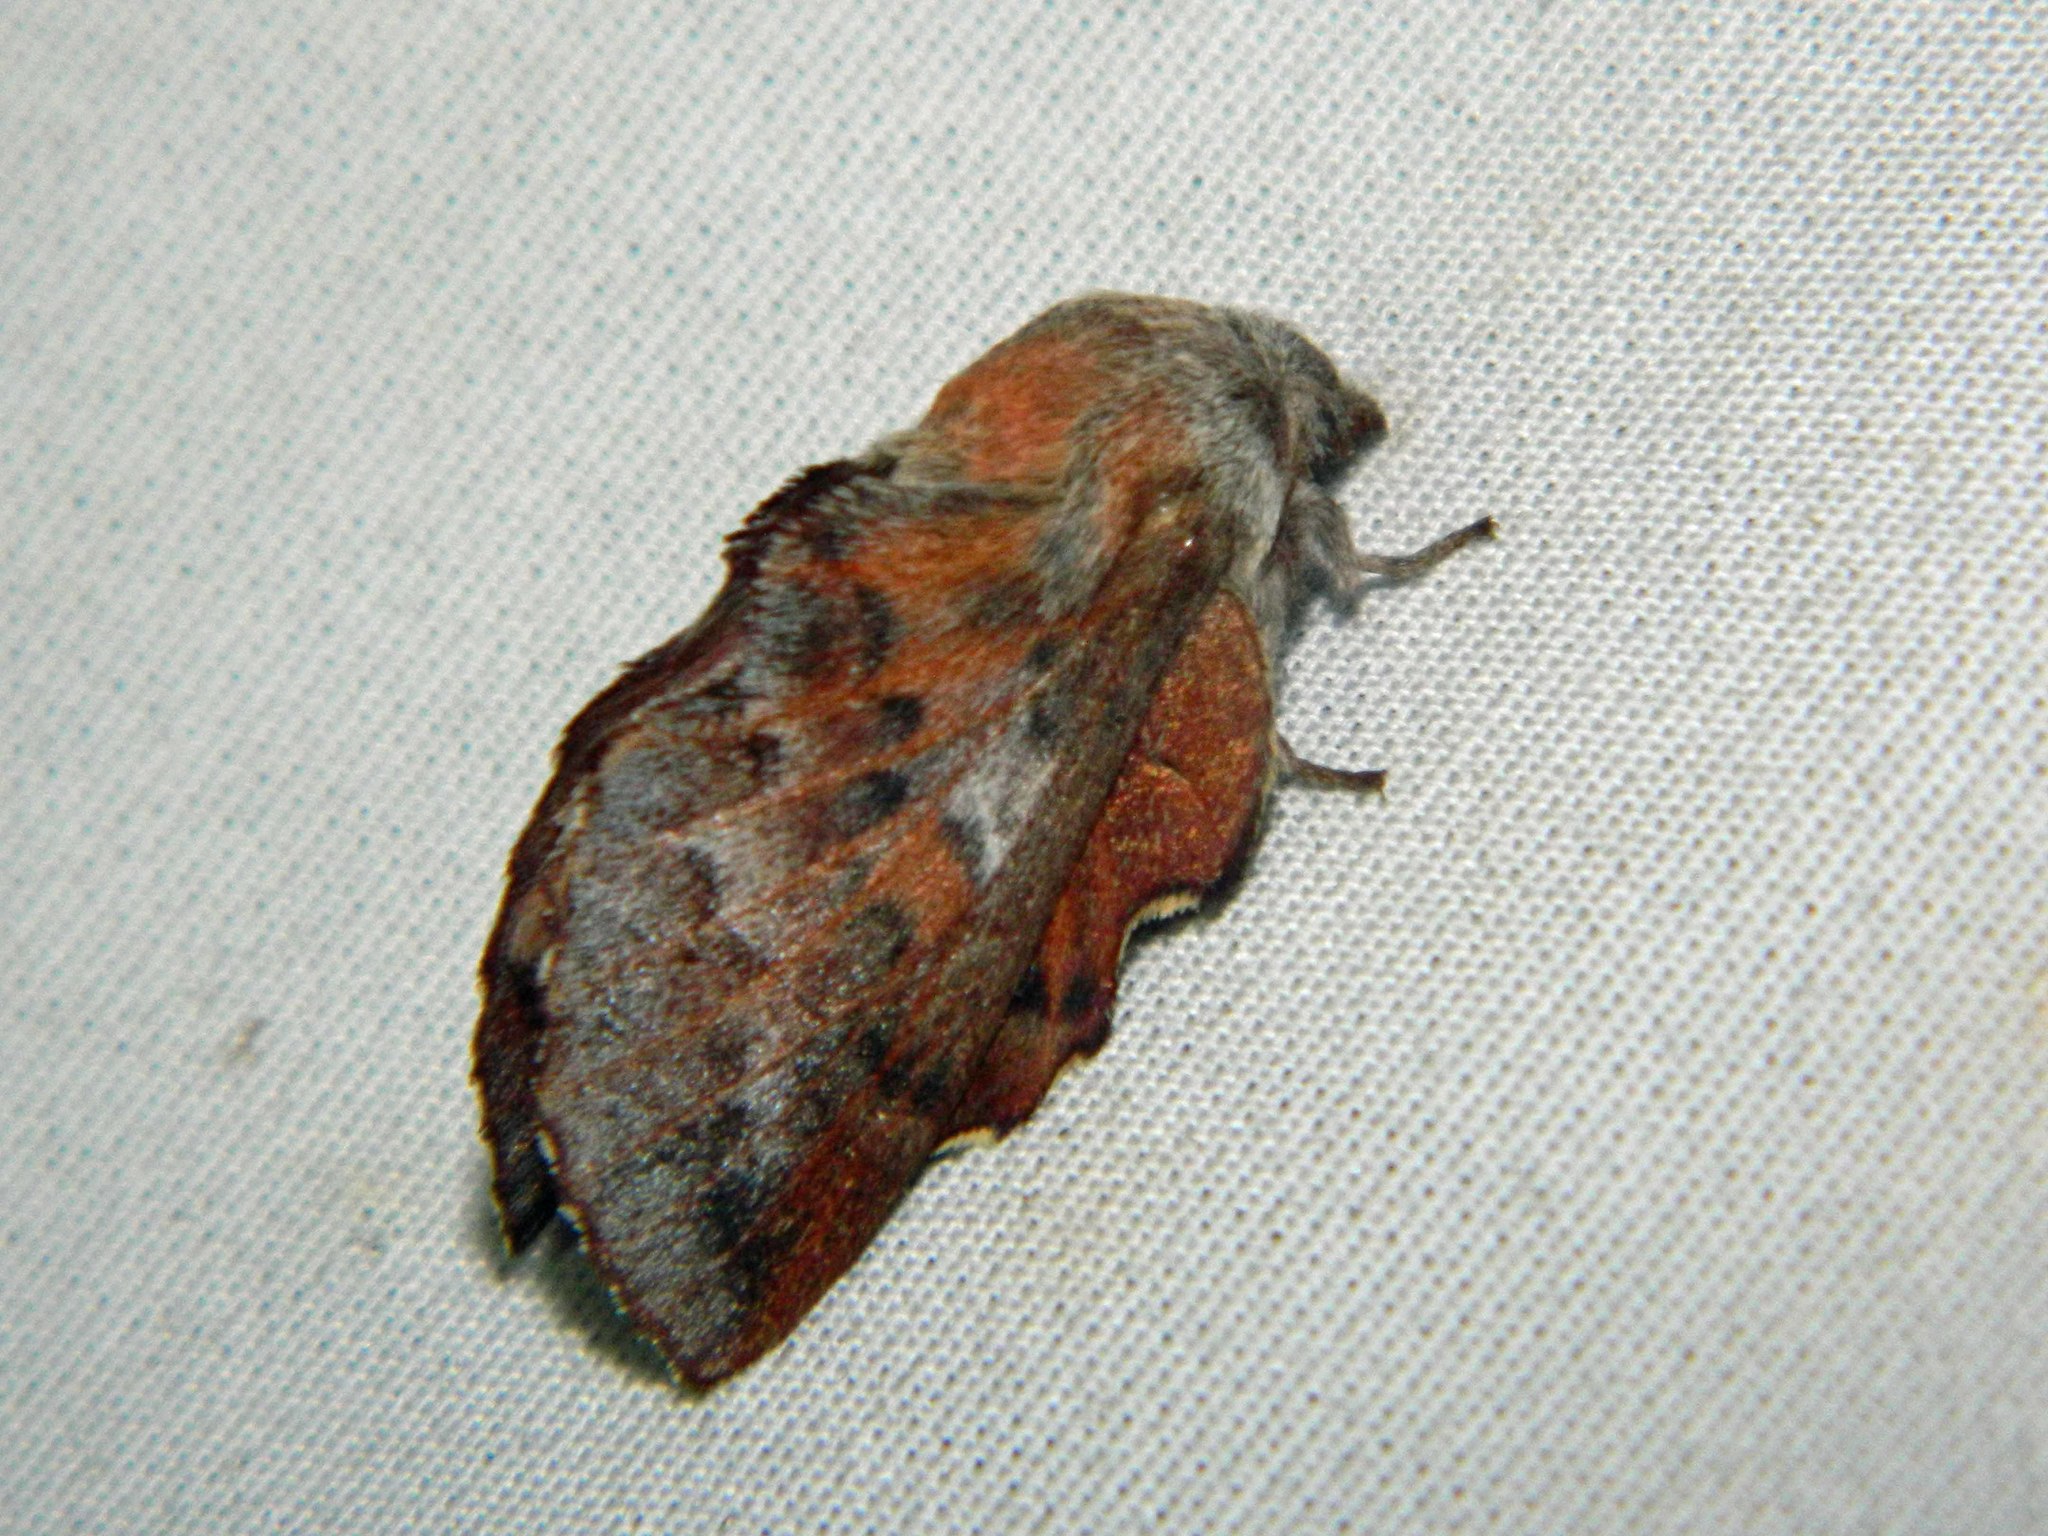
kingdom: Animalia
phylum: Arthropoda
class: Insecta
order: Lepidoptera
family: Lasiocampidae
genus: Phyllodesma
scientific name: Phyllodesma americana
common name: American lappet moth
